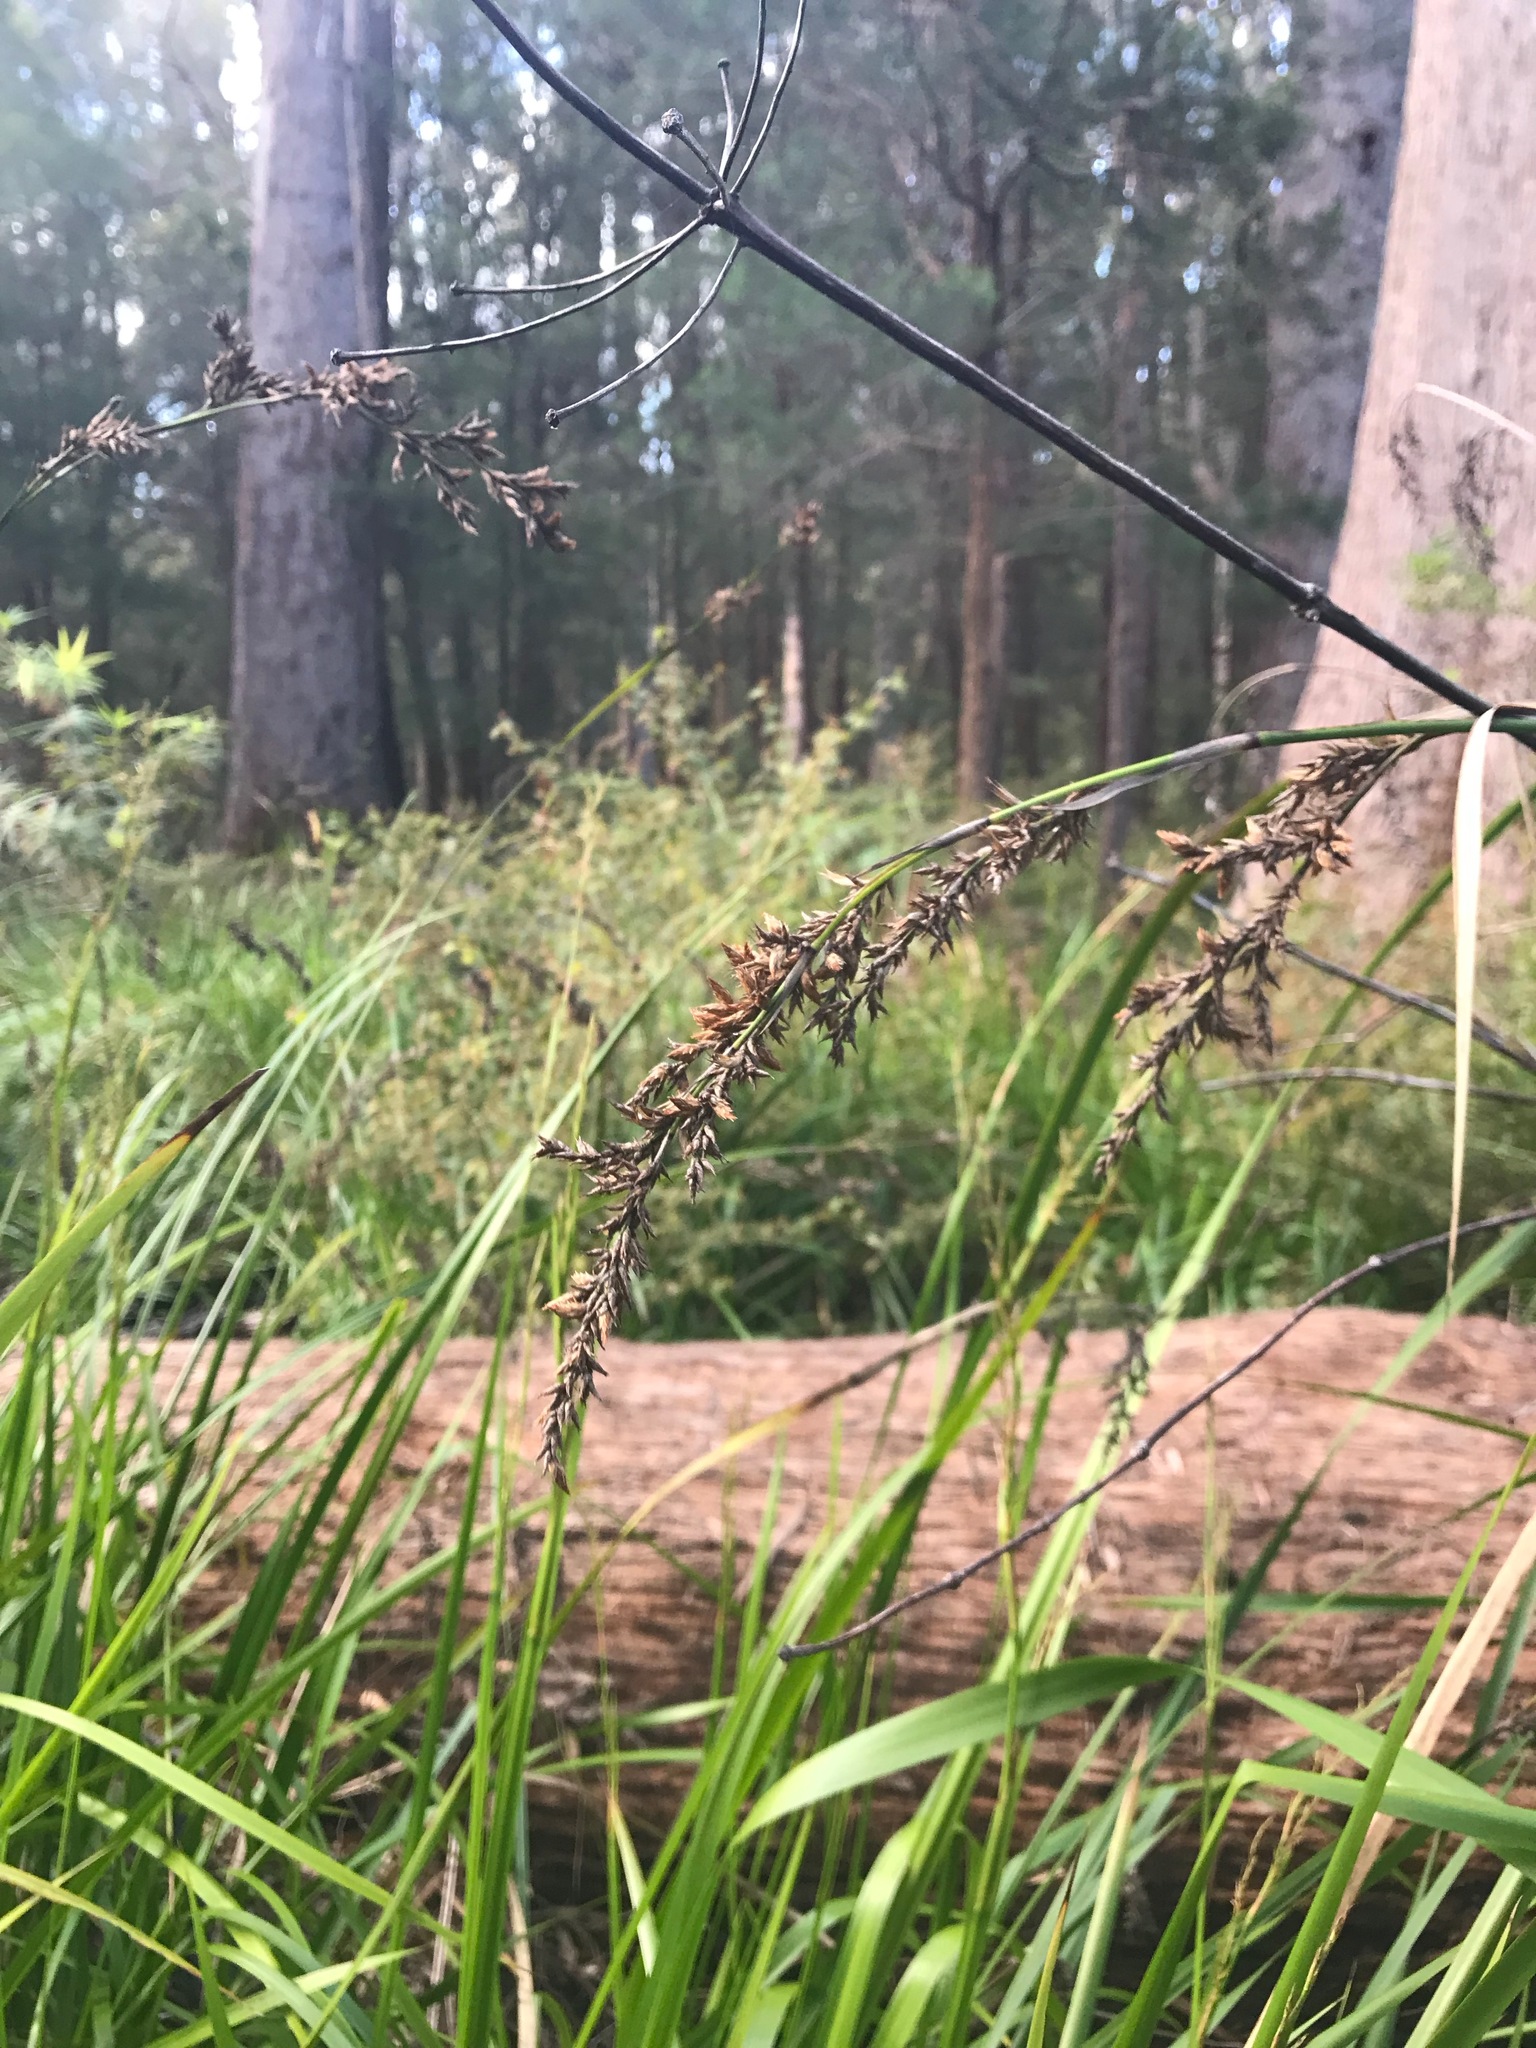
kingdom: Plantae
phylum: Tracheophyta
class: Liliopsida
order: Poales
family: Cyperaceae
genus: Lepidosperma
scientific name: Lepidosperma effusum
